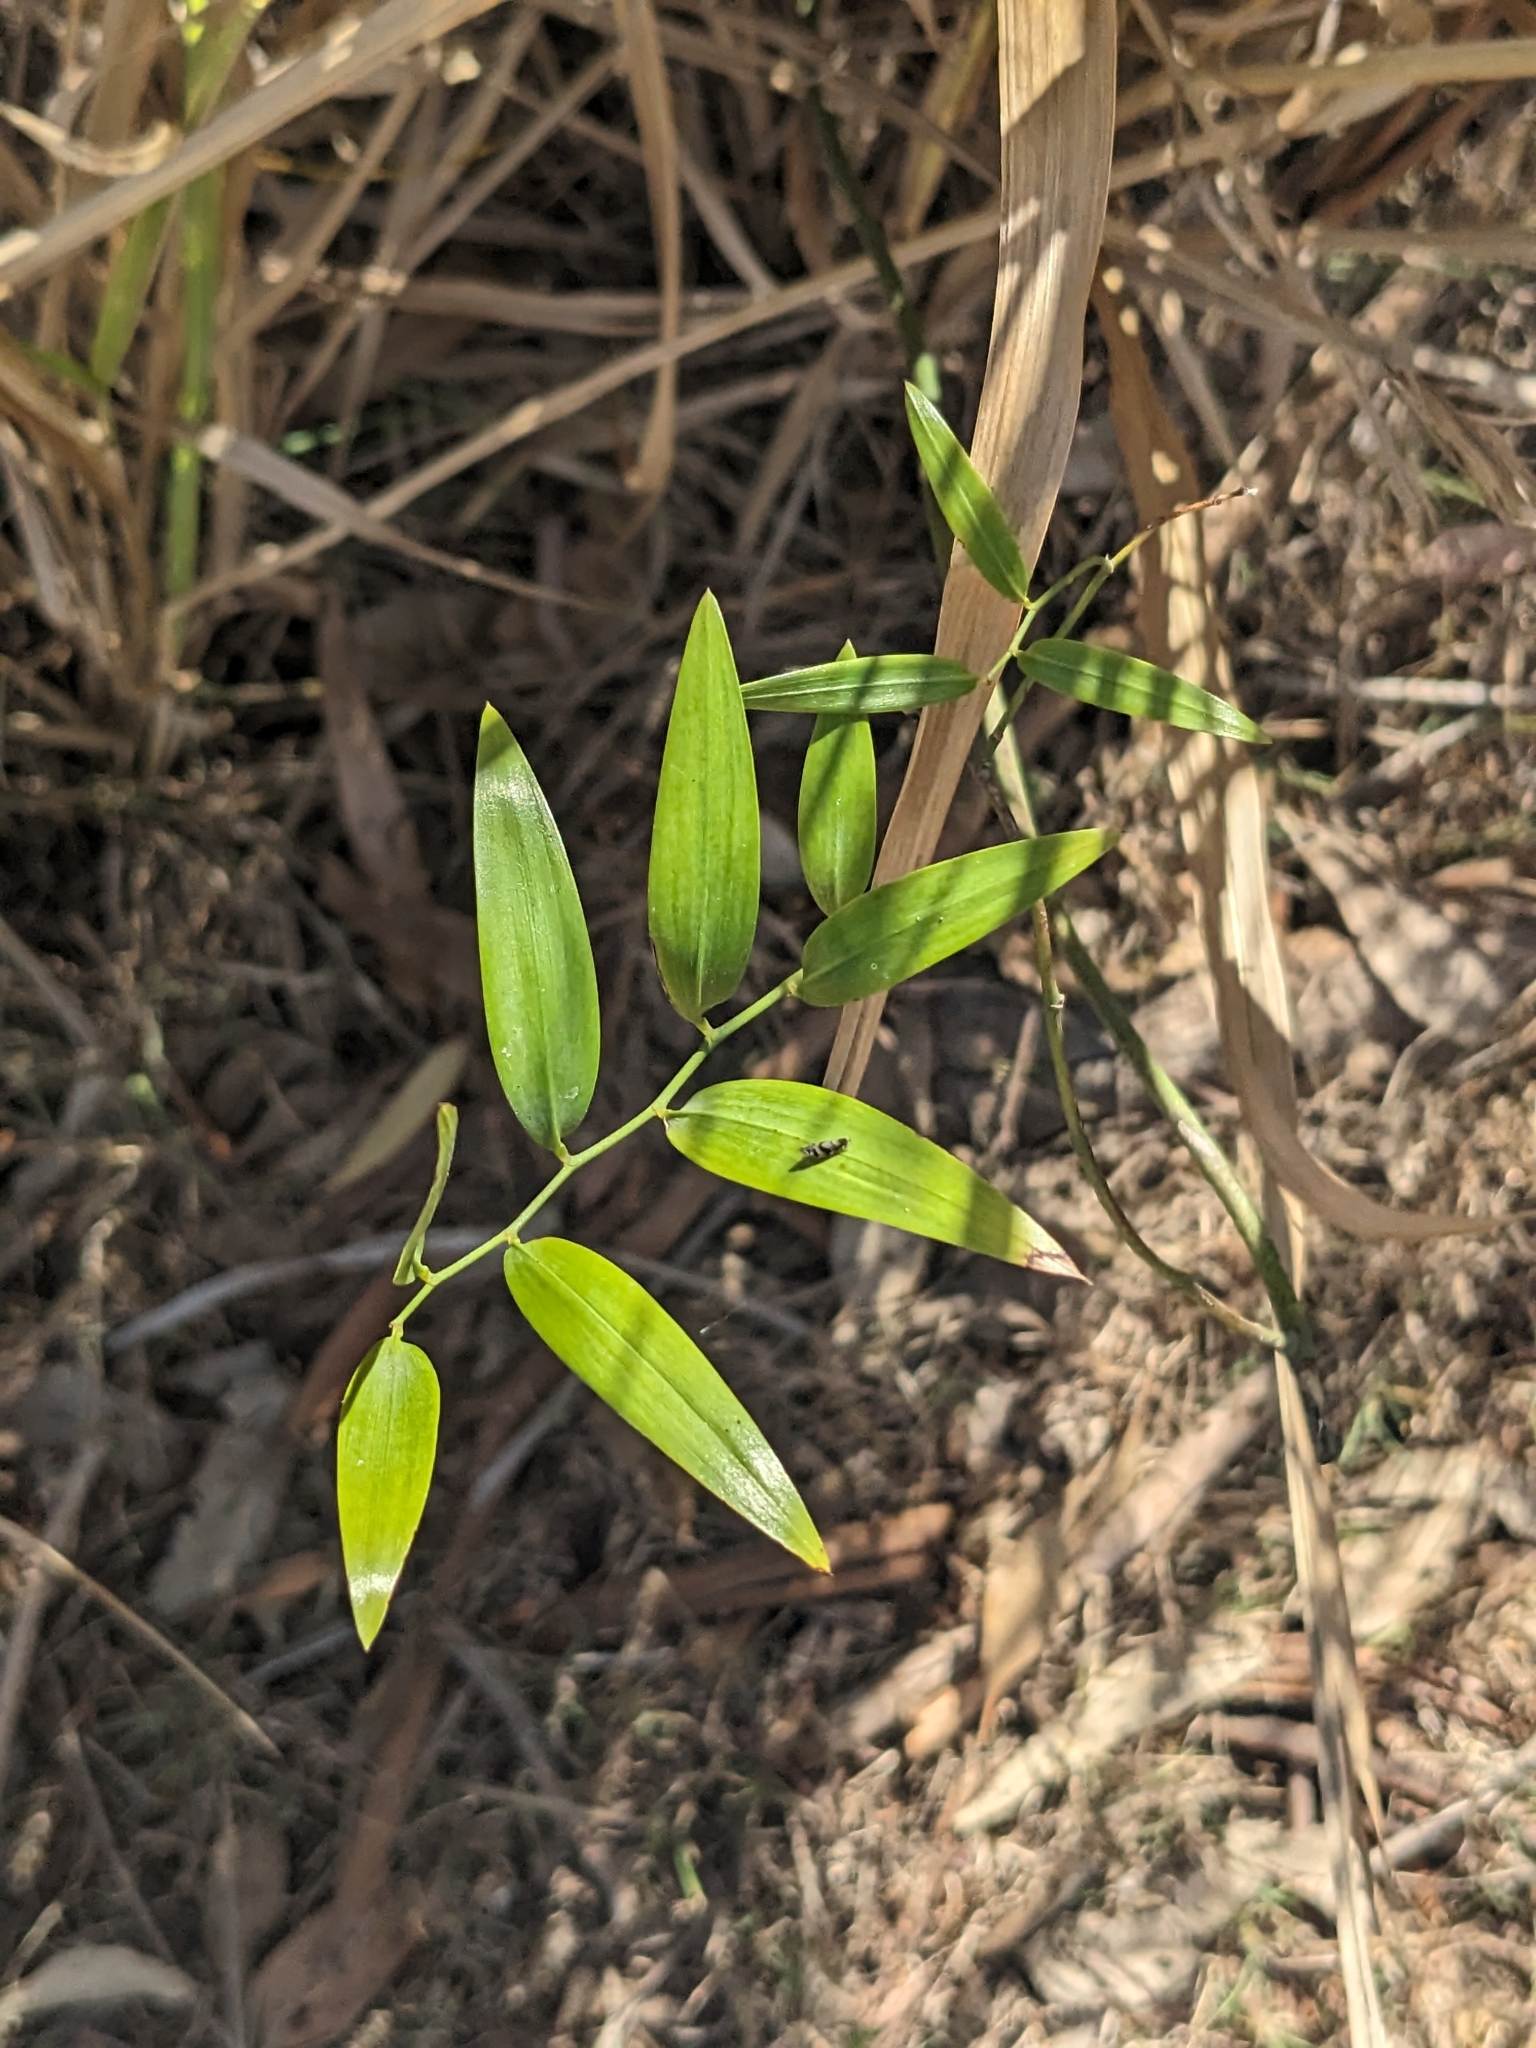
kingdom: Plantae
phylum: Tracheophyta
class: Liliopsida
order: Asparagales
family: Asphodelaceae
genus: Geitonoplesium
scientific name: Geitonoplesium cymosum
